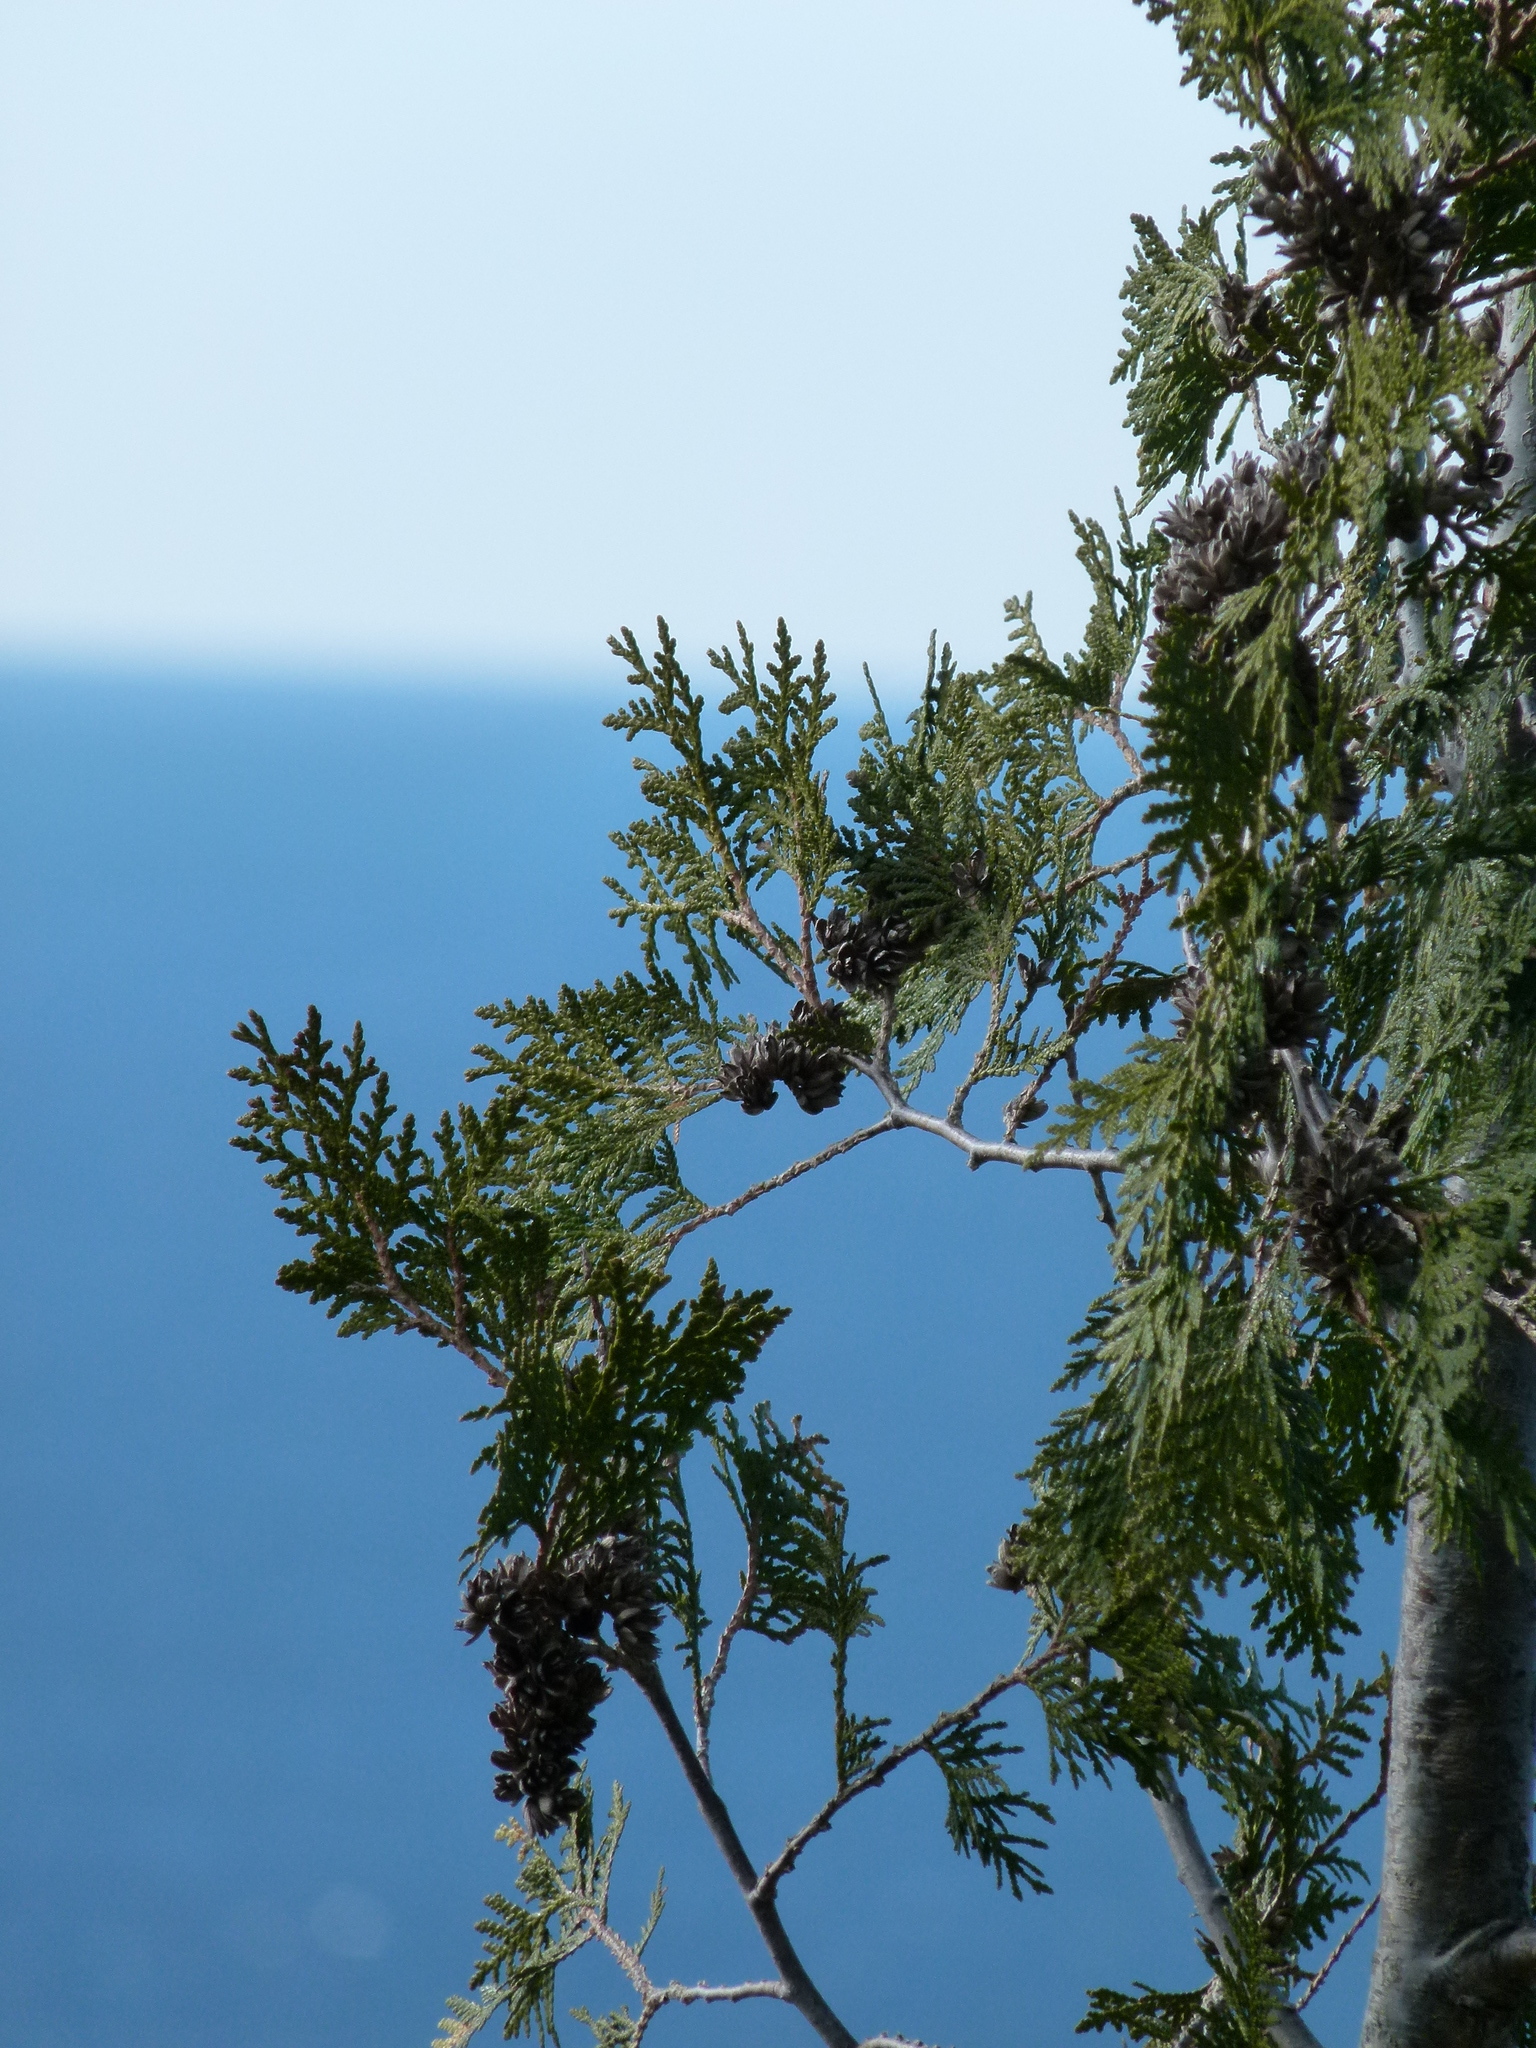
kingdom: Plantae
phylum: Tracheophyta
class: Pinopsida
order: Pinales
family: Cupressaceae
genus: Thuja
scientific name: Thuja occidentalis
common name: Northern white-cedar
